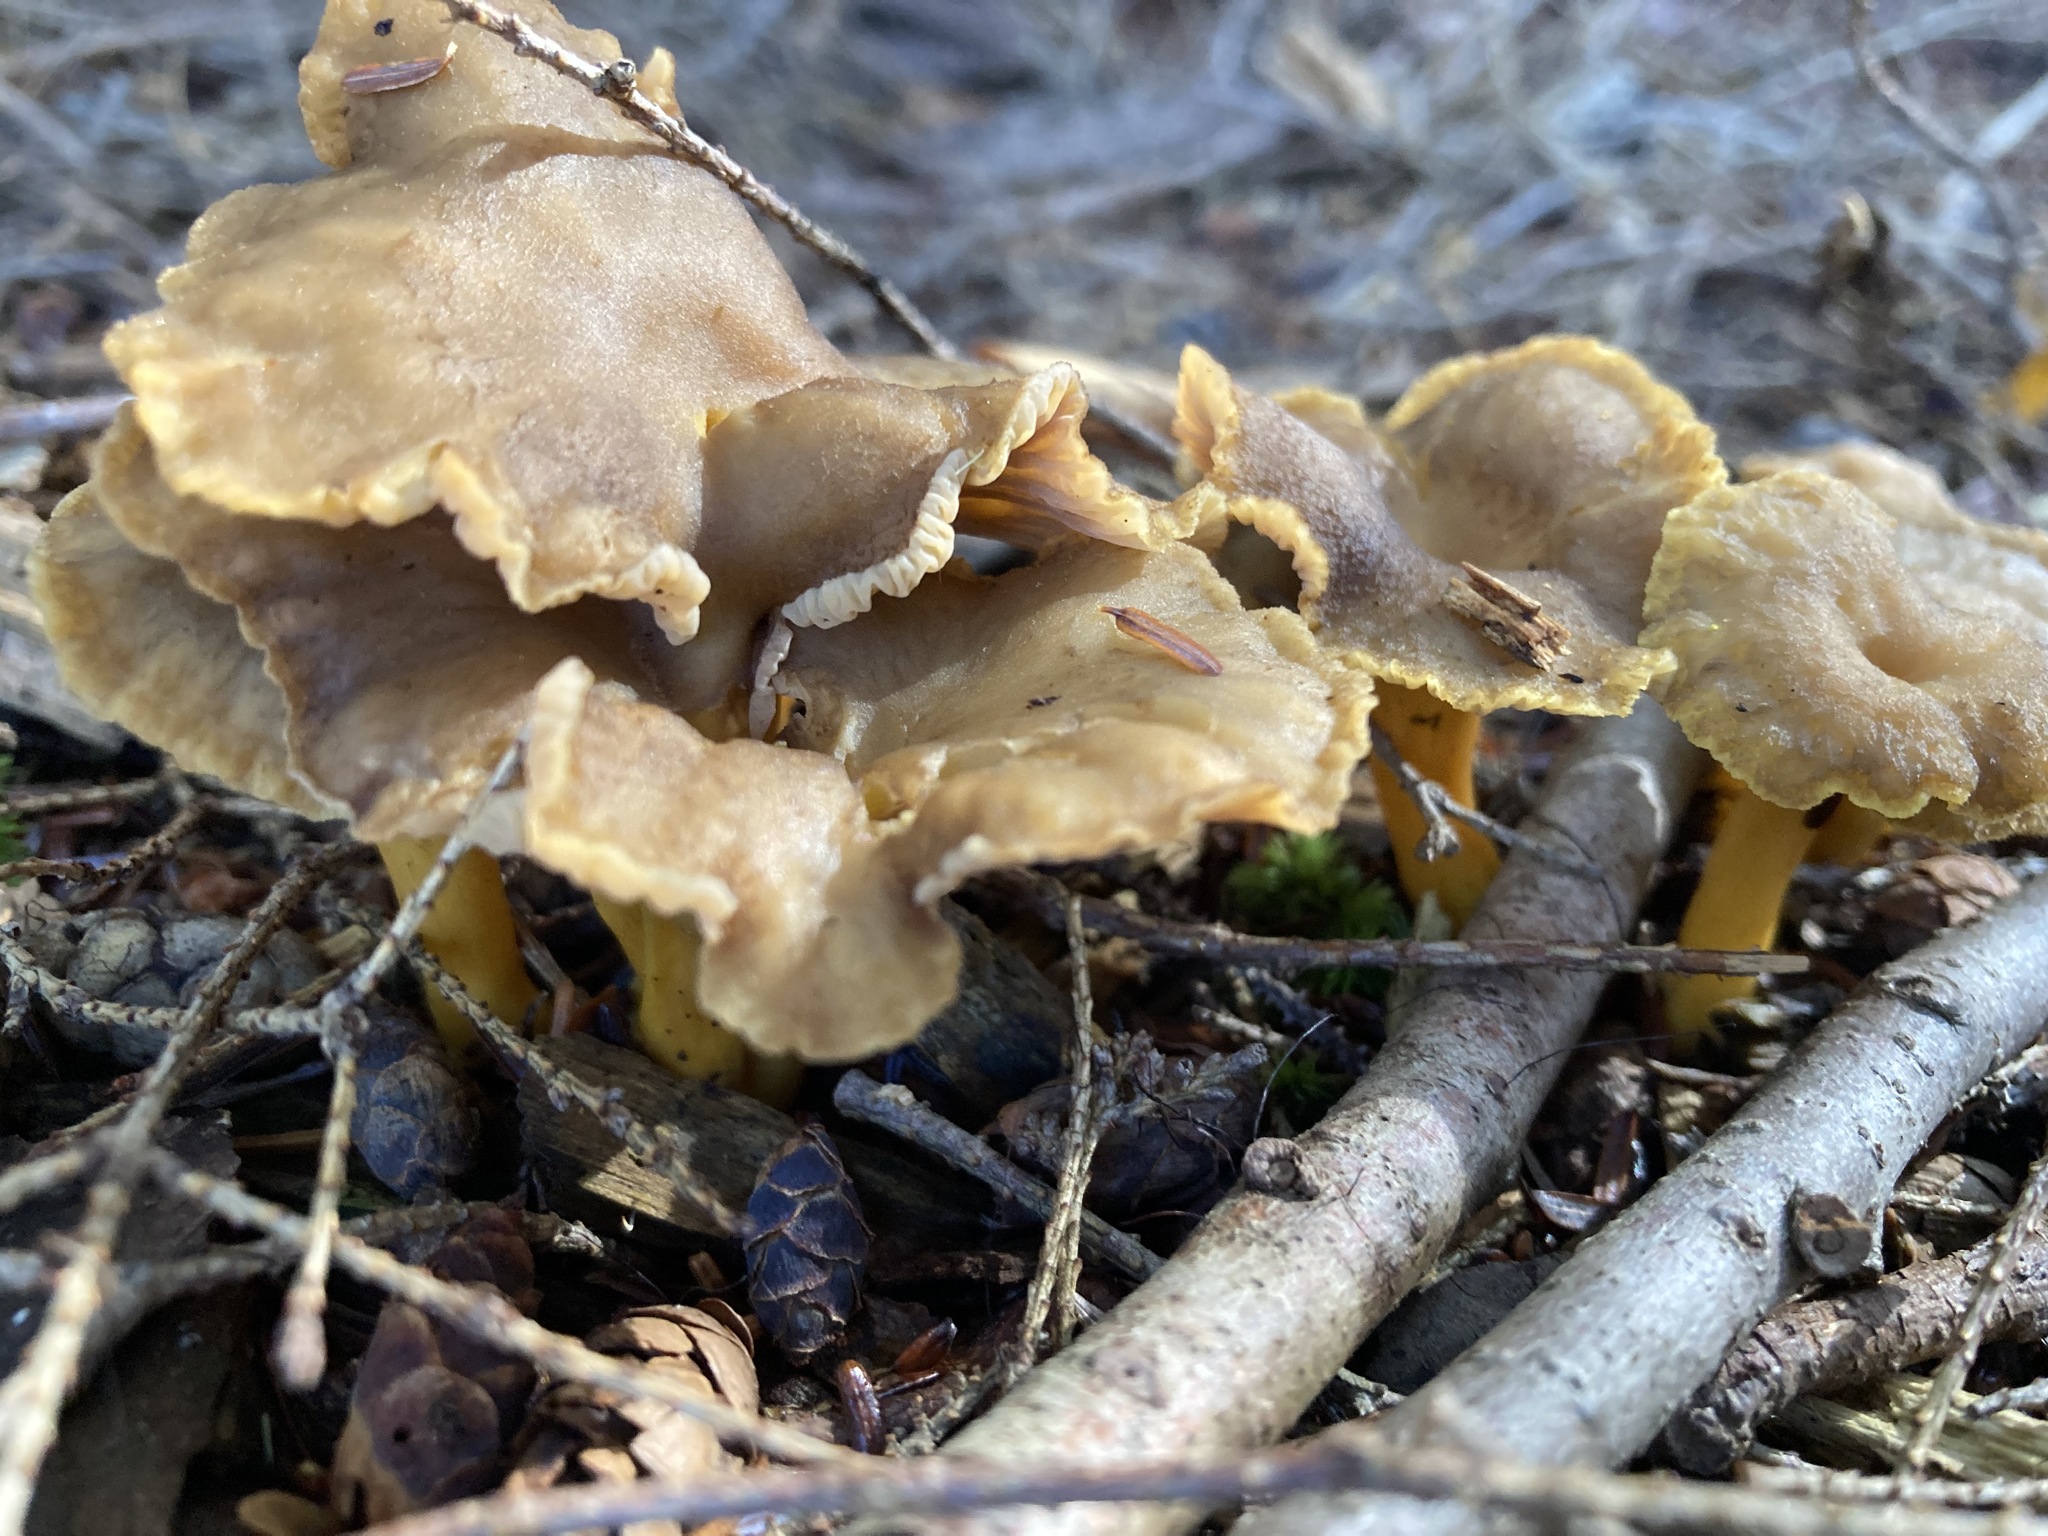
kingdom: Fungi
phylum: Basidiomycota
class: Agaricomycetes
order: Cantharellales
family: Hydnaceae
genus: Craterellus
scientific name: Craterellus tubaeformis
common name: Yellowfoot
